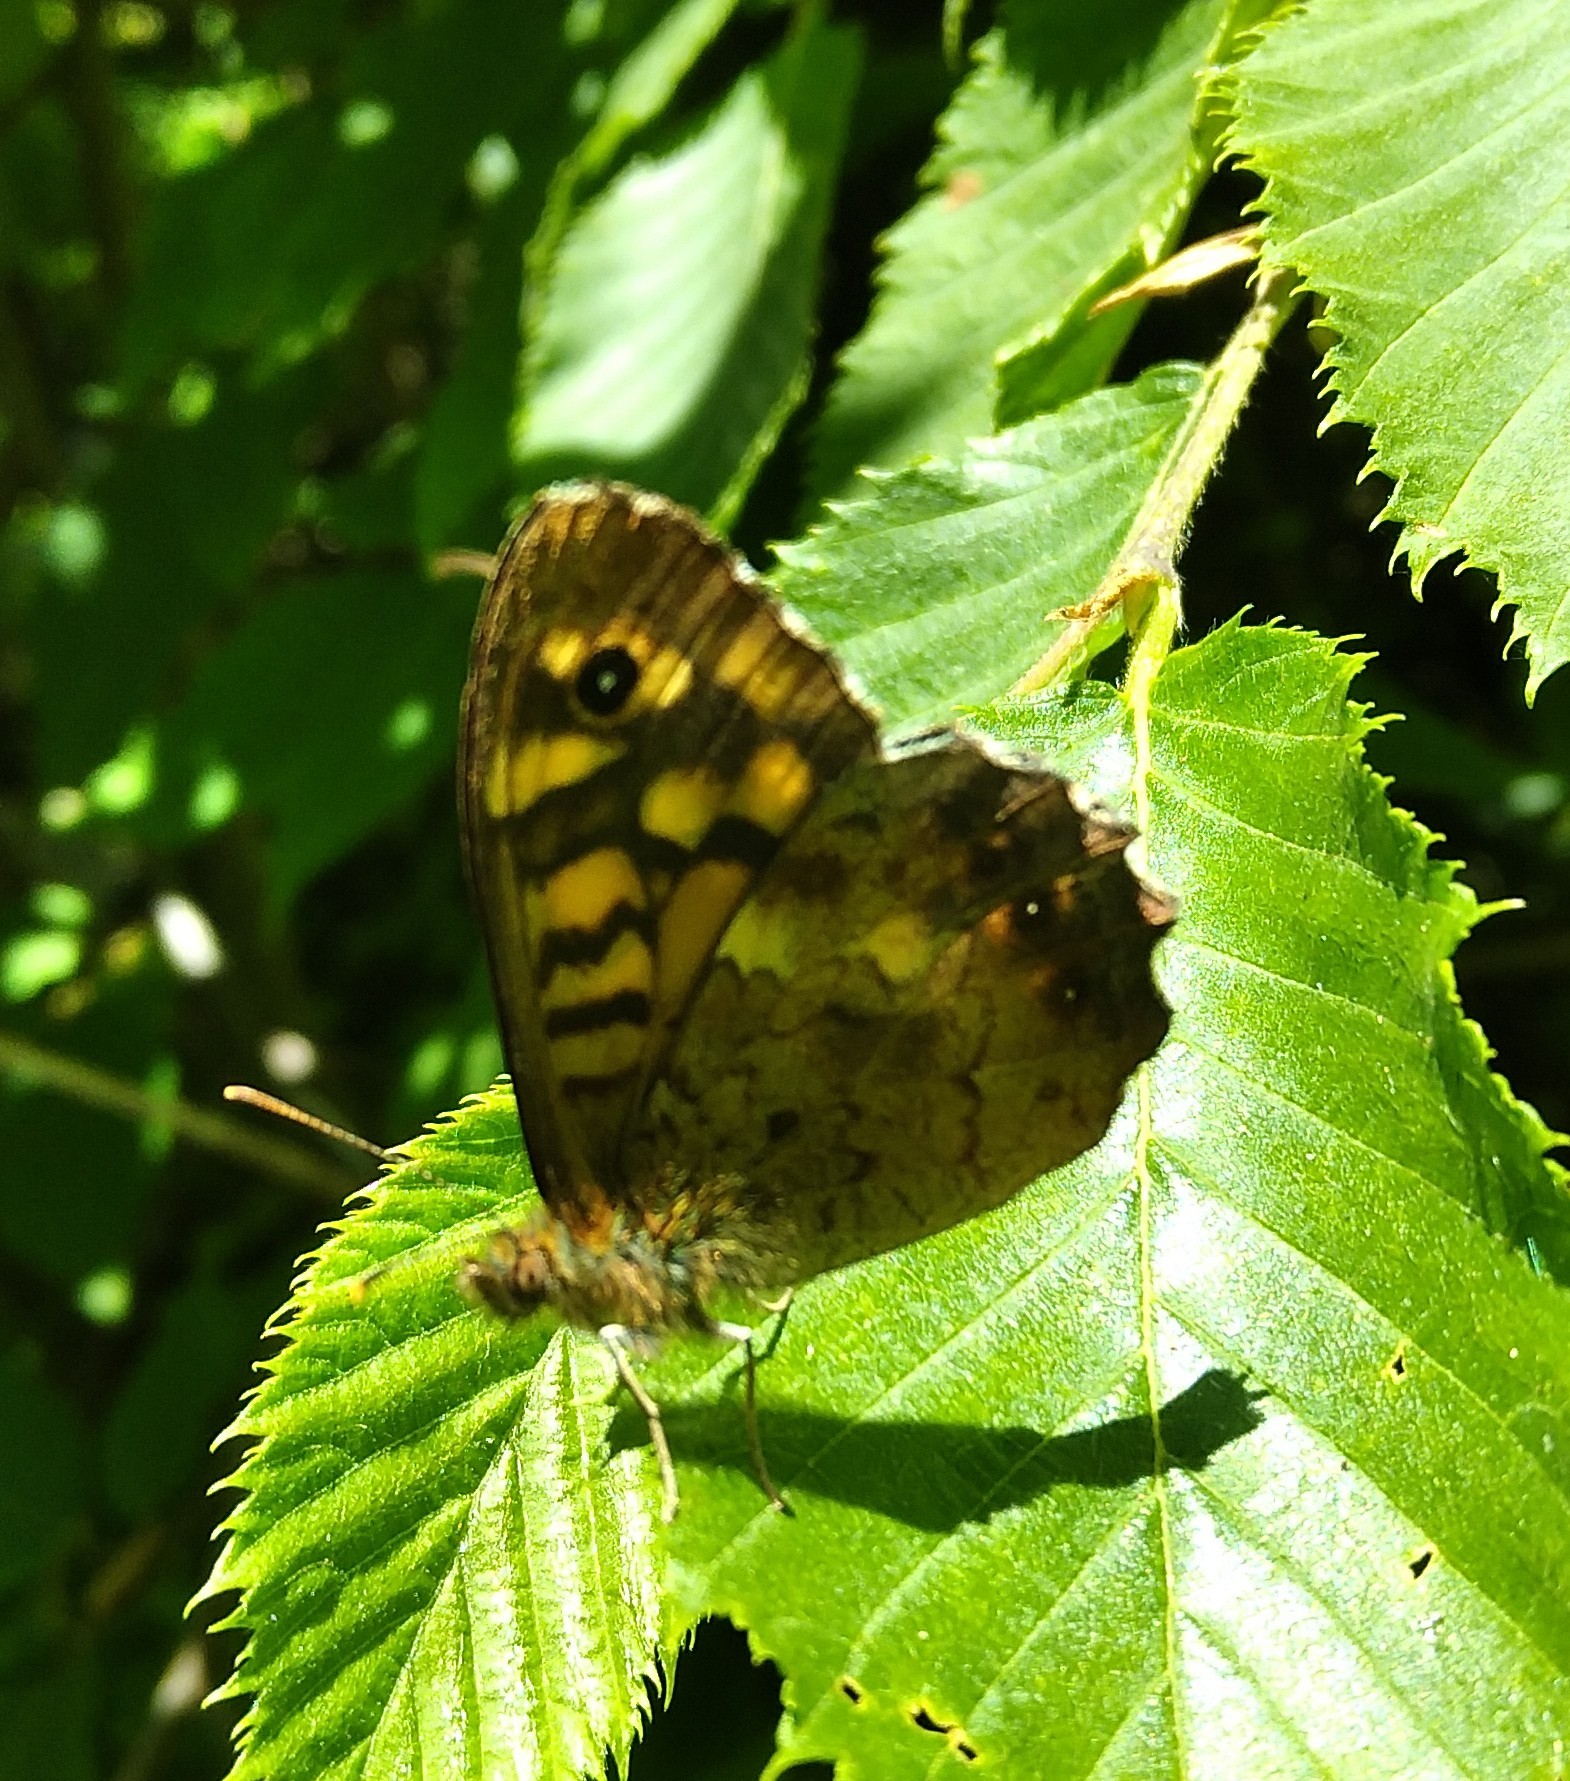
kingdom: Animalia
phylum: Arthropoda
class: Insecta
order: Lepidoptera
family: Nymphalidae
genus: Pararge
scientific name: Pararge aegeria
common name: Speckled wood
